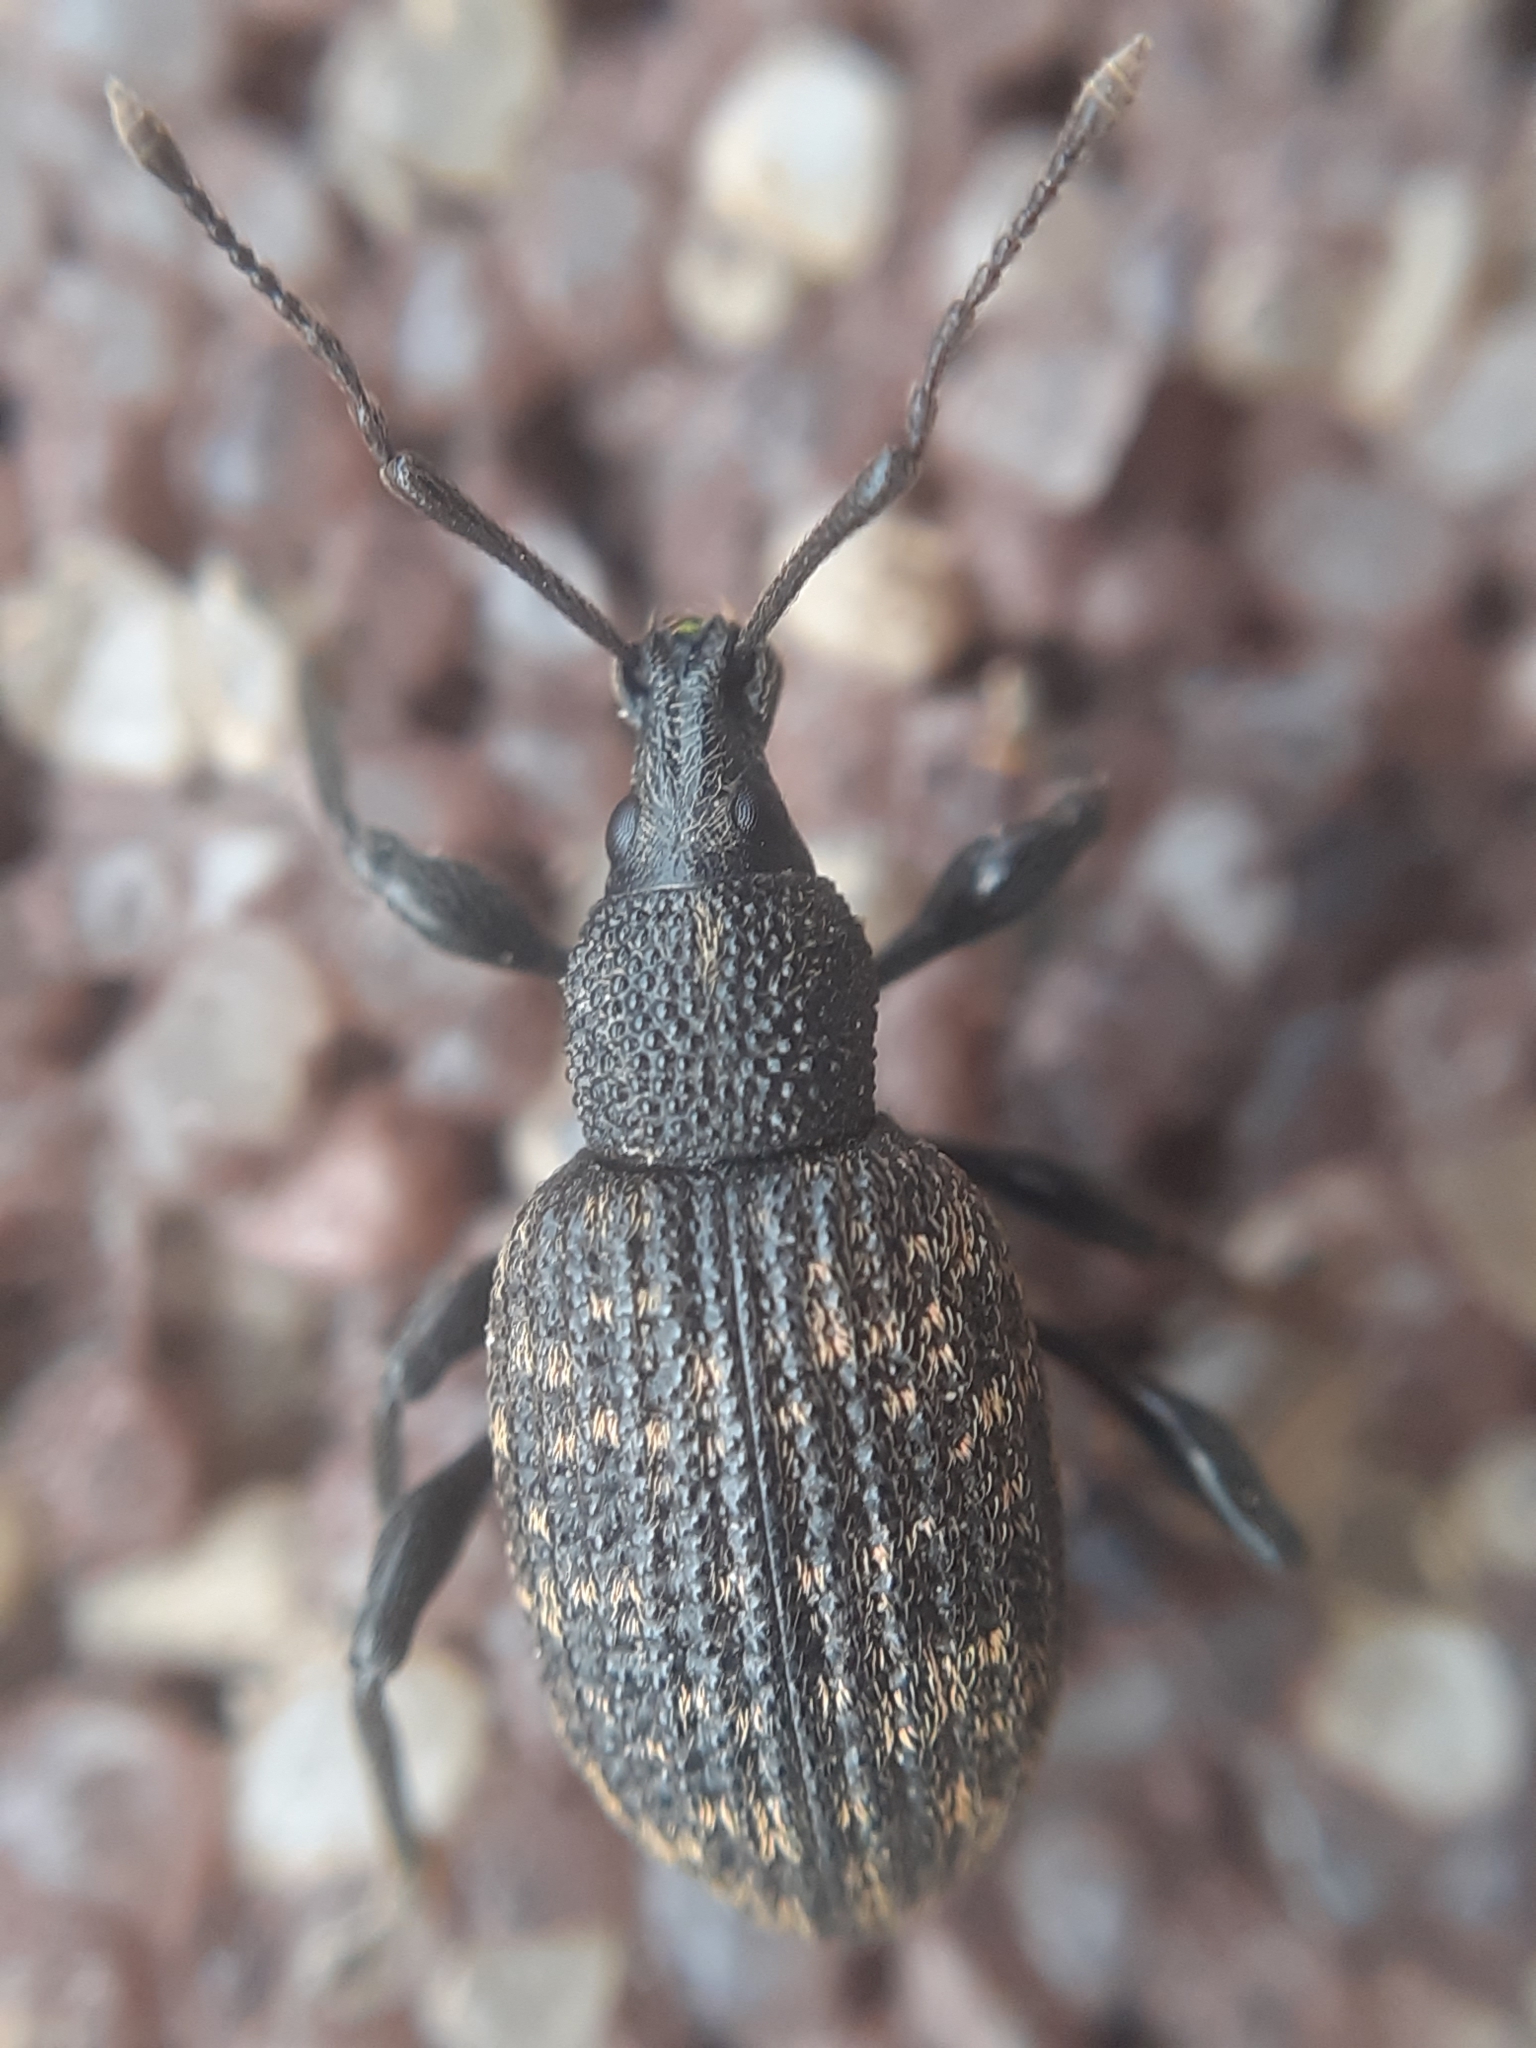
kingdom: Animalia
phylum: Arthropoda
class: Insecta
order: Coleoptera
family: Curculionidae
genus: Otiorhynchus
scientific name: Otiorhynchus sulcatus
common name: Black vine weevil
